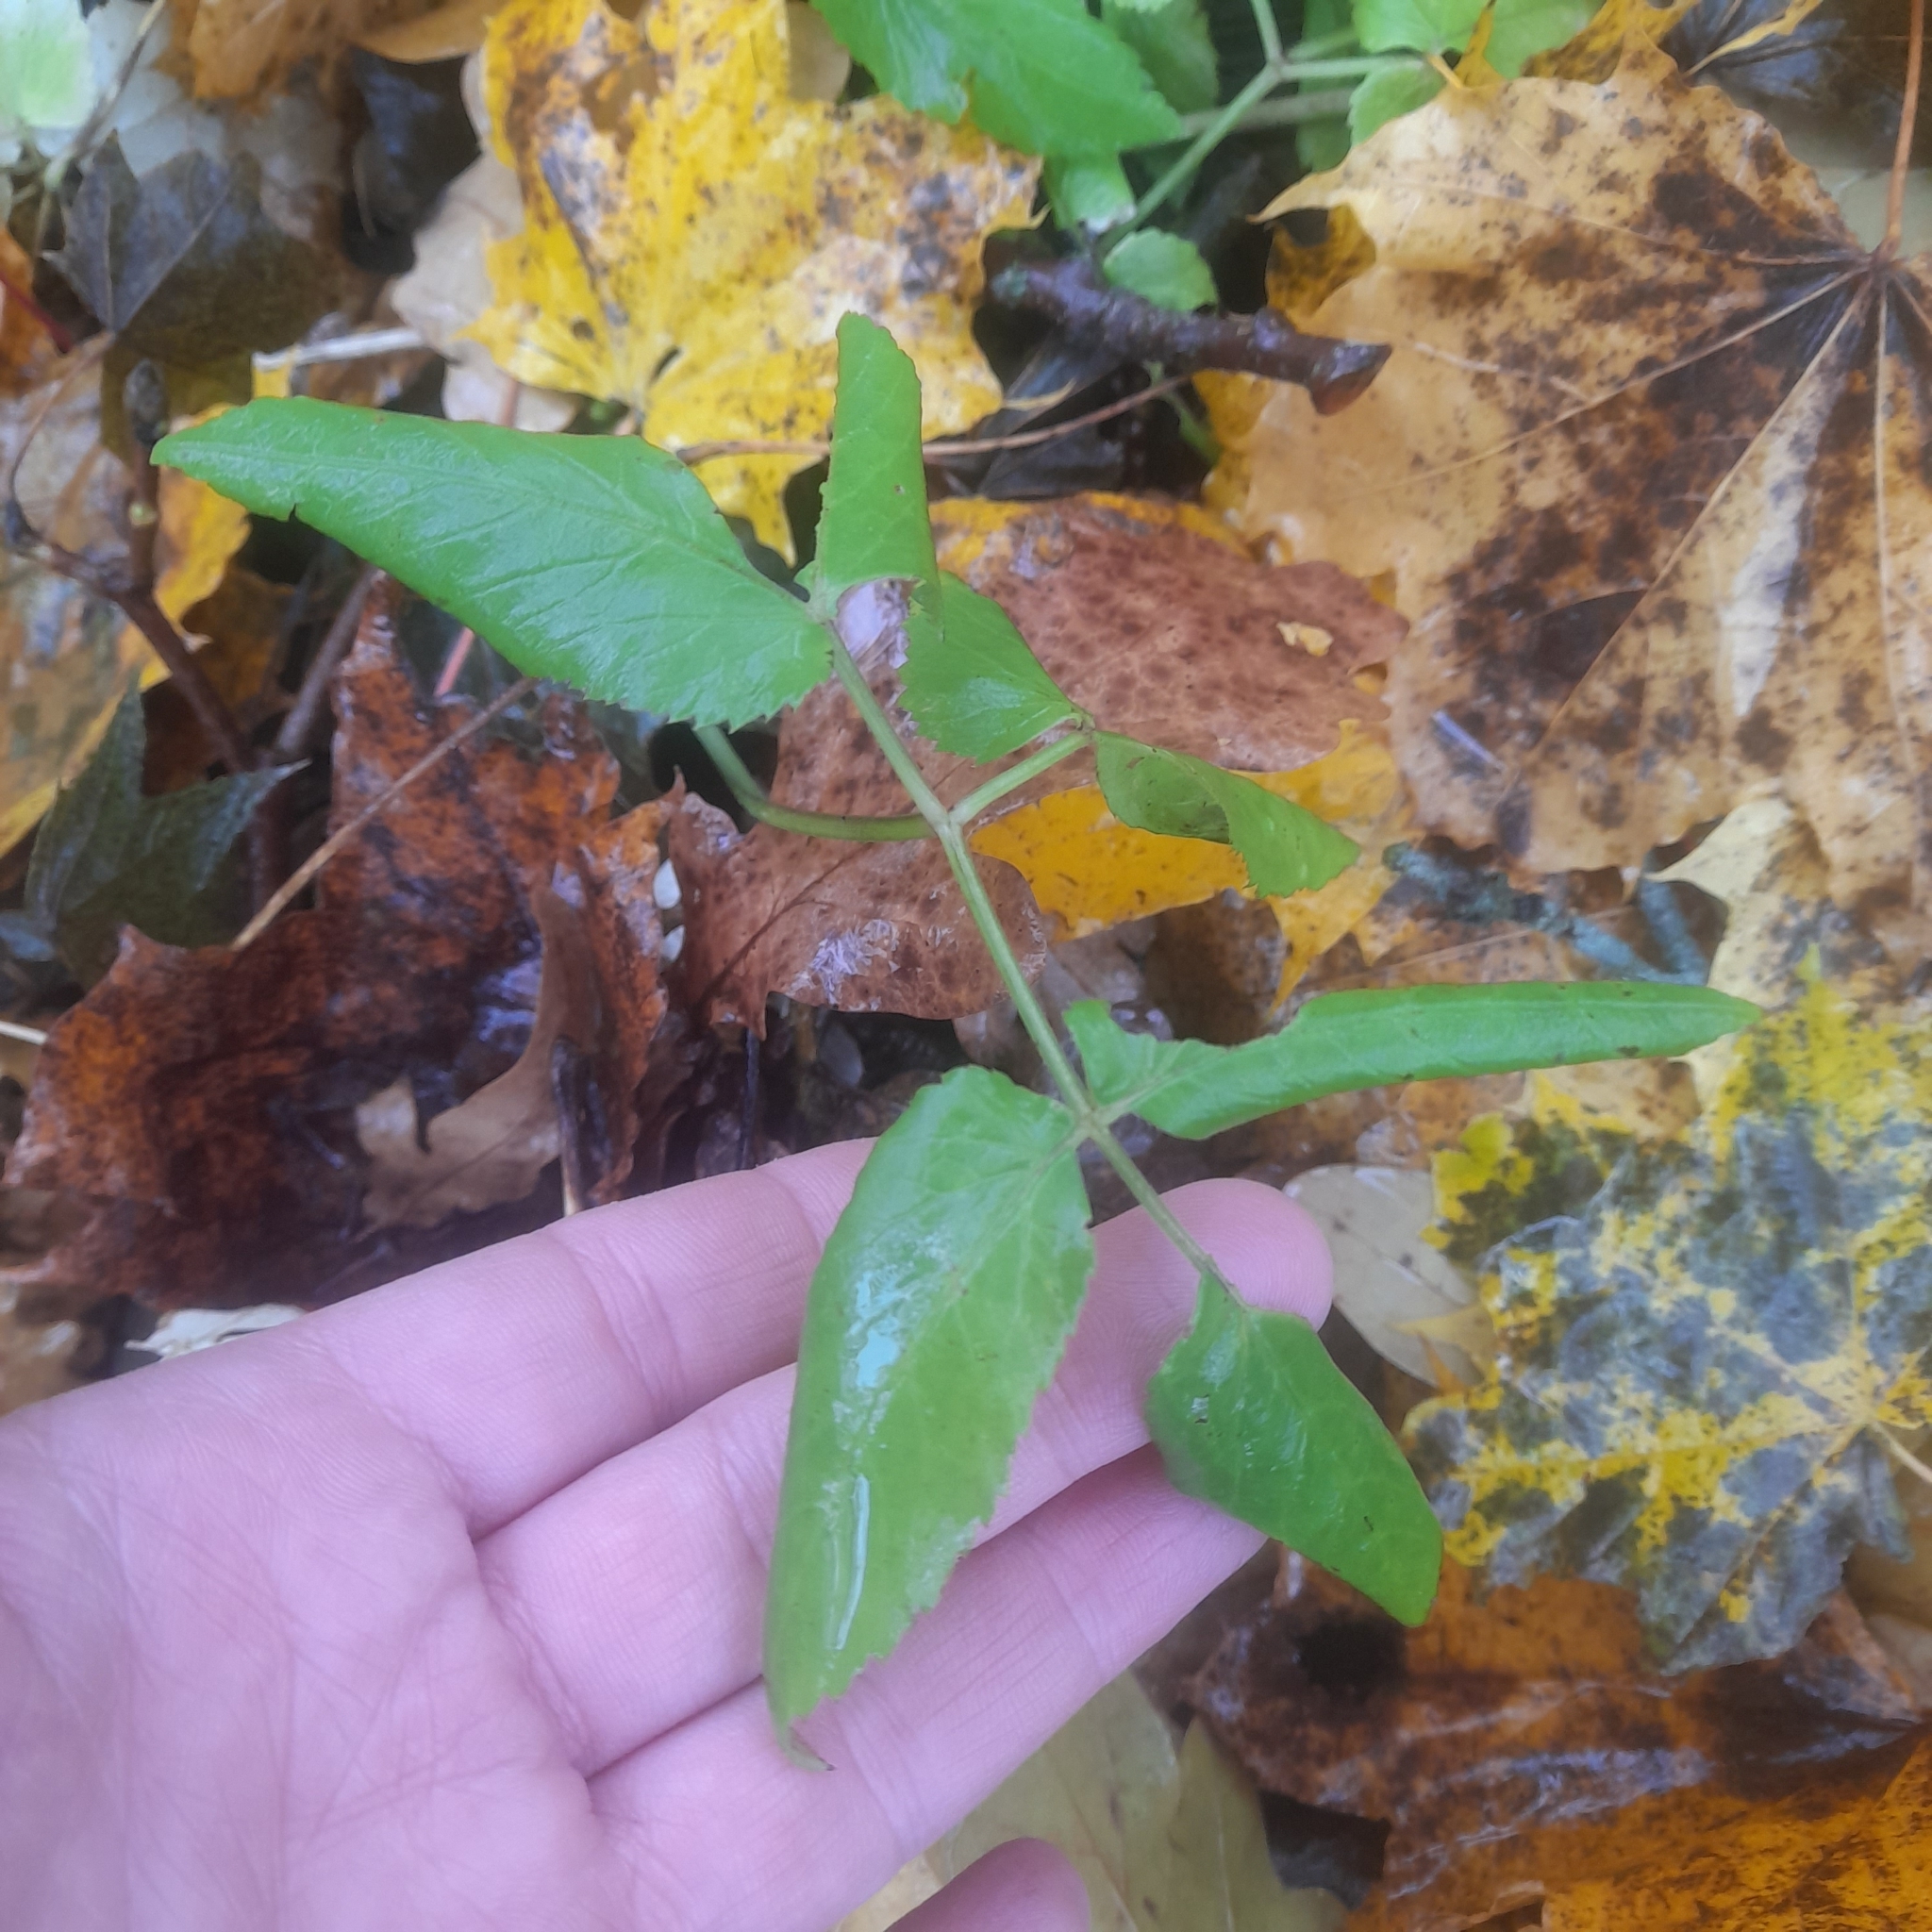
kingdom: Plantae
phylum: Tracheophyta
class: Magnoliopsida
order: Apiales
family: Apiaceae
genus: Aegopodium
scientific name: Aegopodium podagraria
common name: Ground-elder
